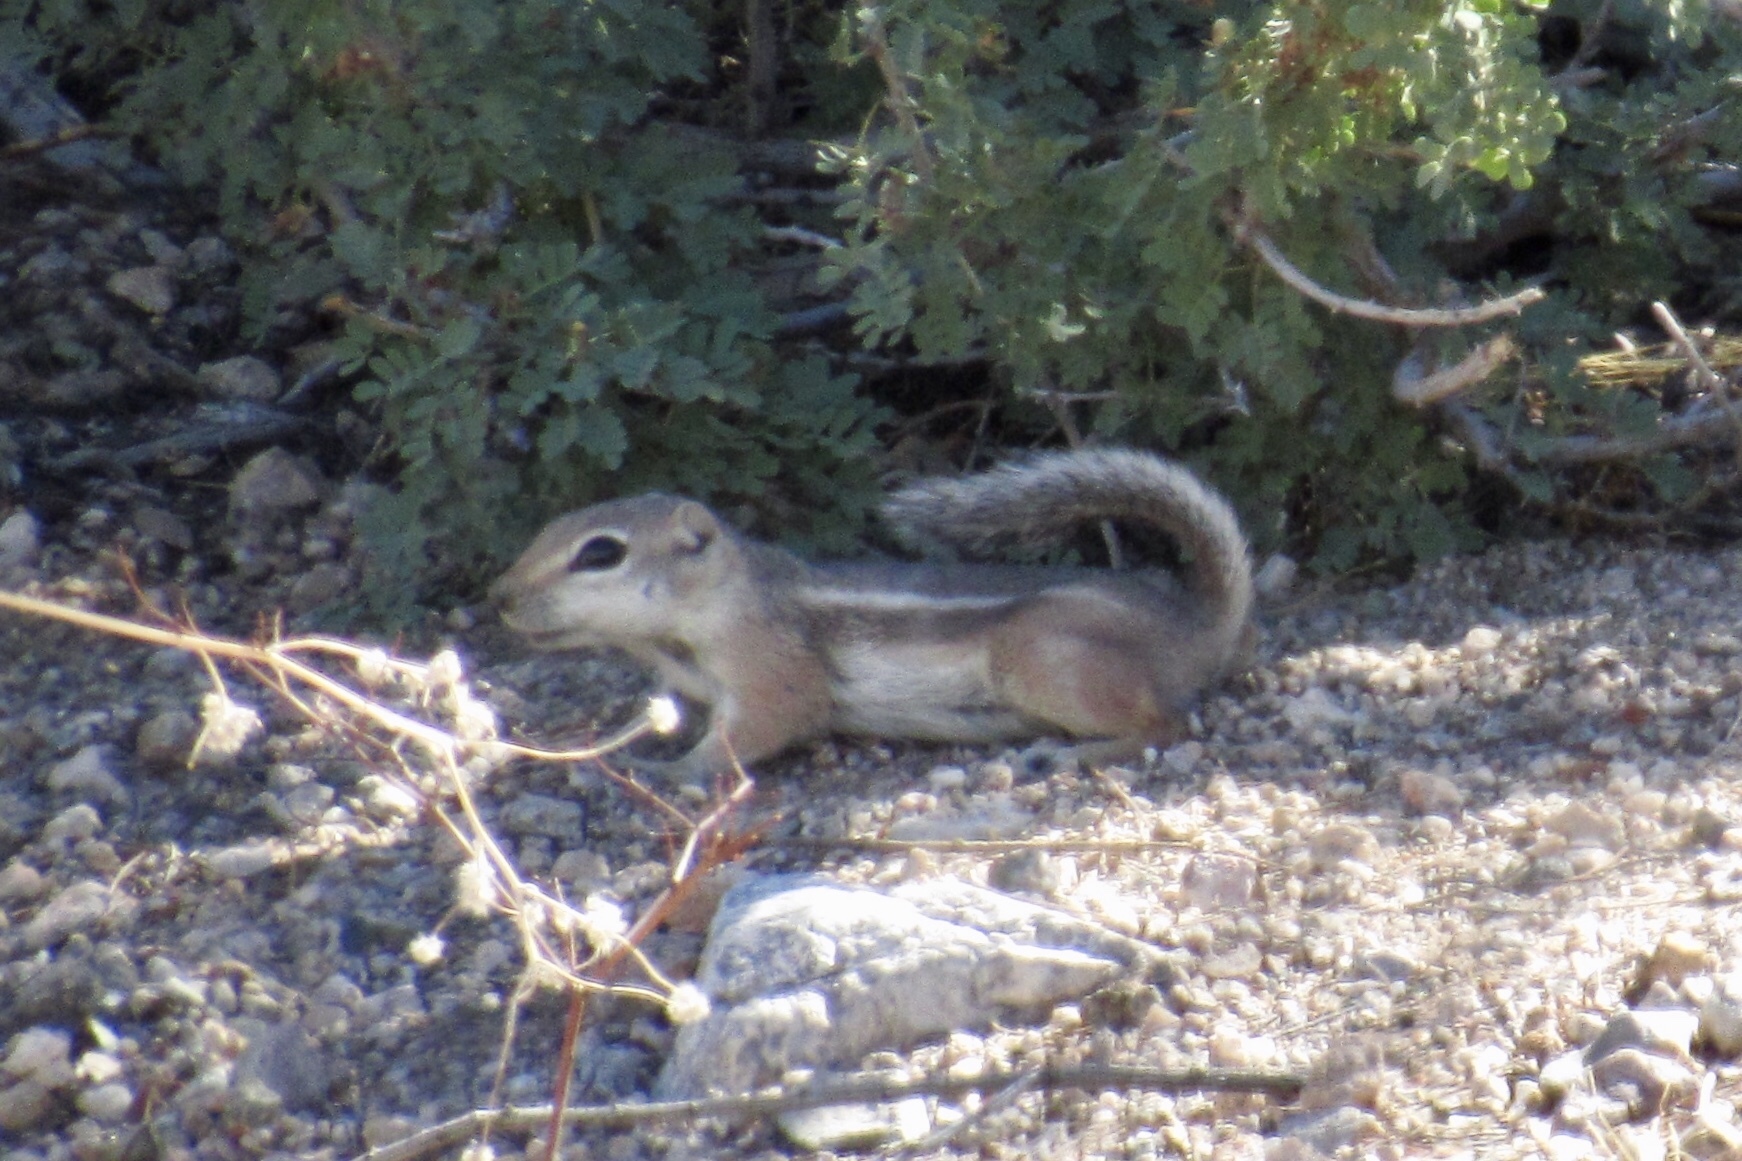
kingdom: Animalia
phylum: Chordata
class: Mammalia
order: Rodentia
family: Sciuridae
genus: Ammospermophilus
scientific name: Ammospermophilus leucurus
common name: White-tailed antelope squirrel
